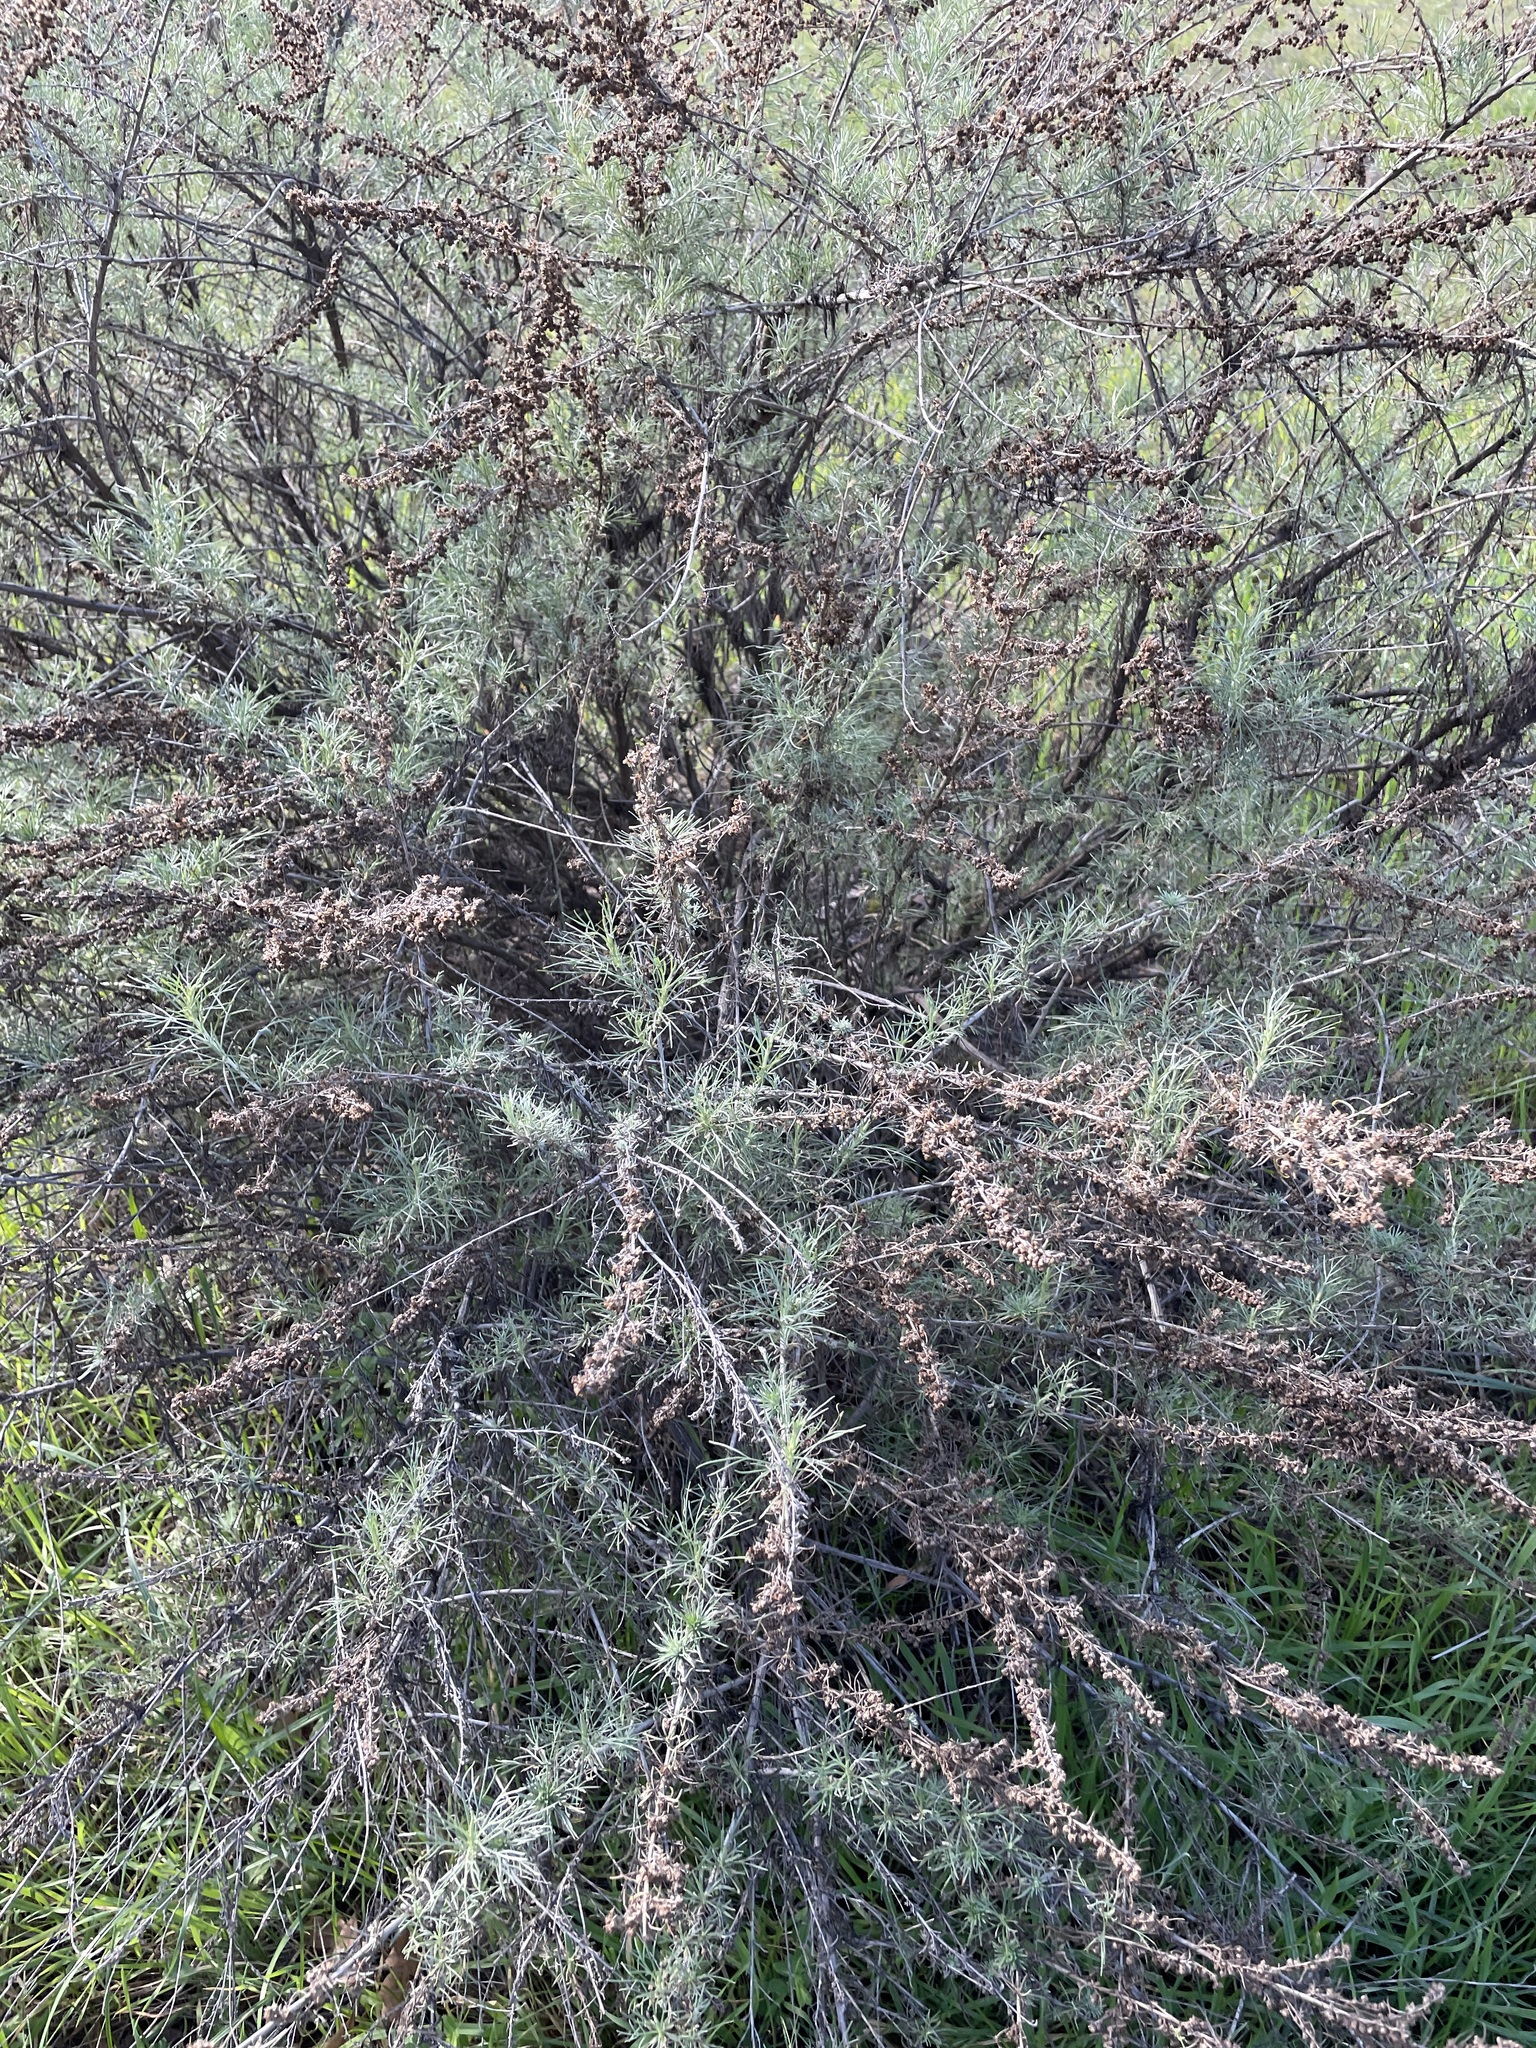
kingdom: Plantae
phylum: Tracheophyta
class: Magnoliopsida
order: Asterales
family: Asteraceae
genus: Artemisia
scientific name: Artemisia californica
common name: California sagebrush
